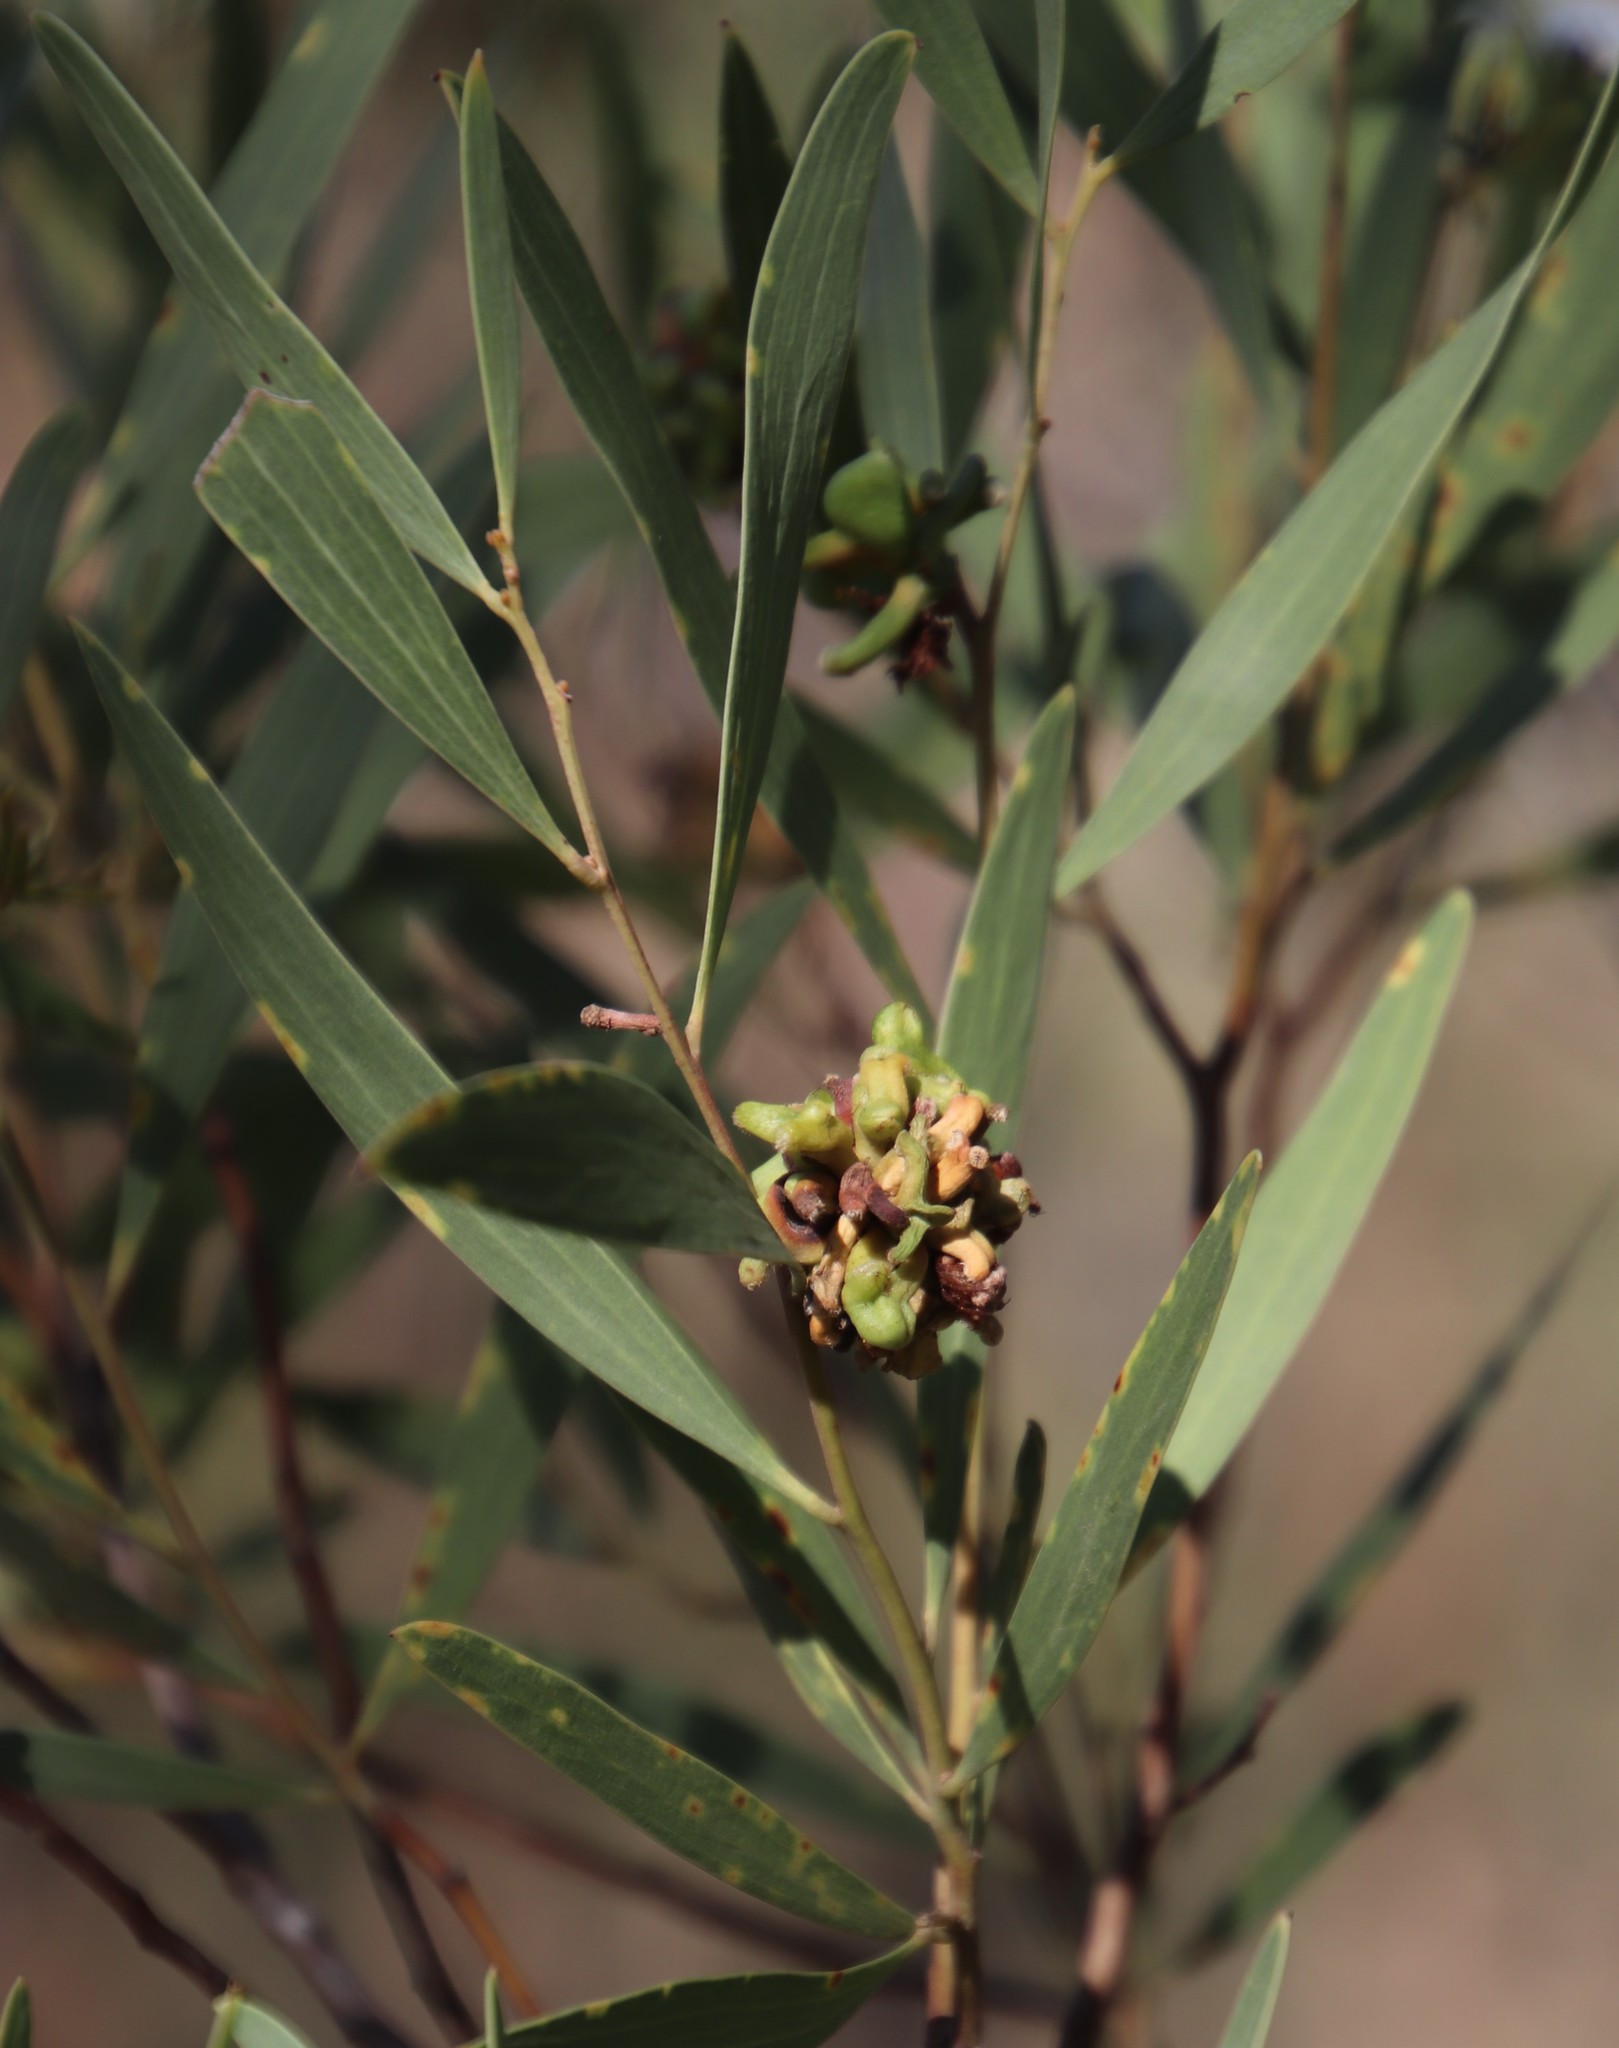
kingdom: Animalia
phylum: Arthropoda
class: Insecta
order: Diptera
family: Cecidomyiidae
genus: Dasineura
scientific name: Dasineura dielsi
